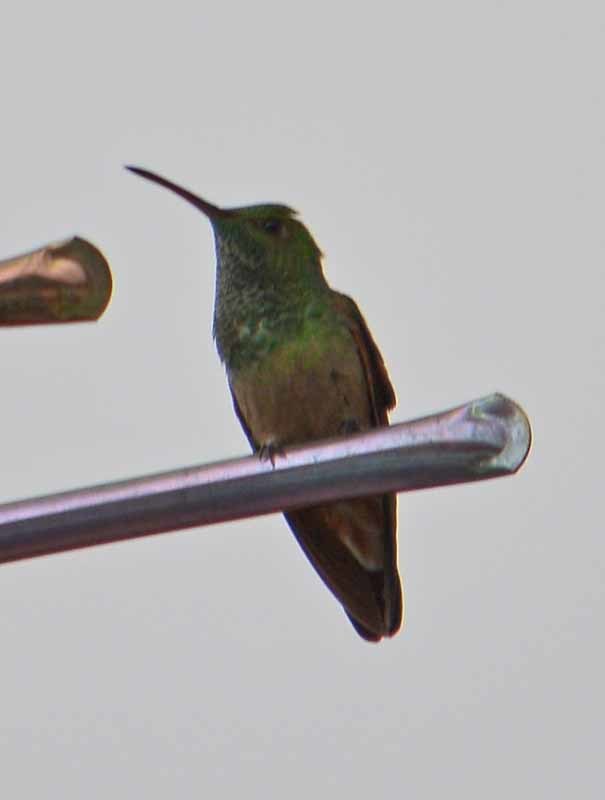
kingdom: Animalia
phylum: Chordata
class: Aves
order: Apodiformes
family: Trochilidae
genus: Saucerottia
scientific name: Saucerottia beryllina
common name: Berylline hummingbird
